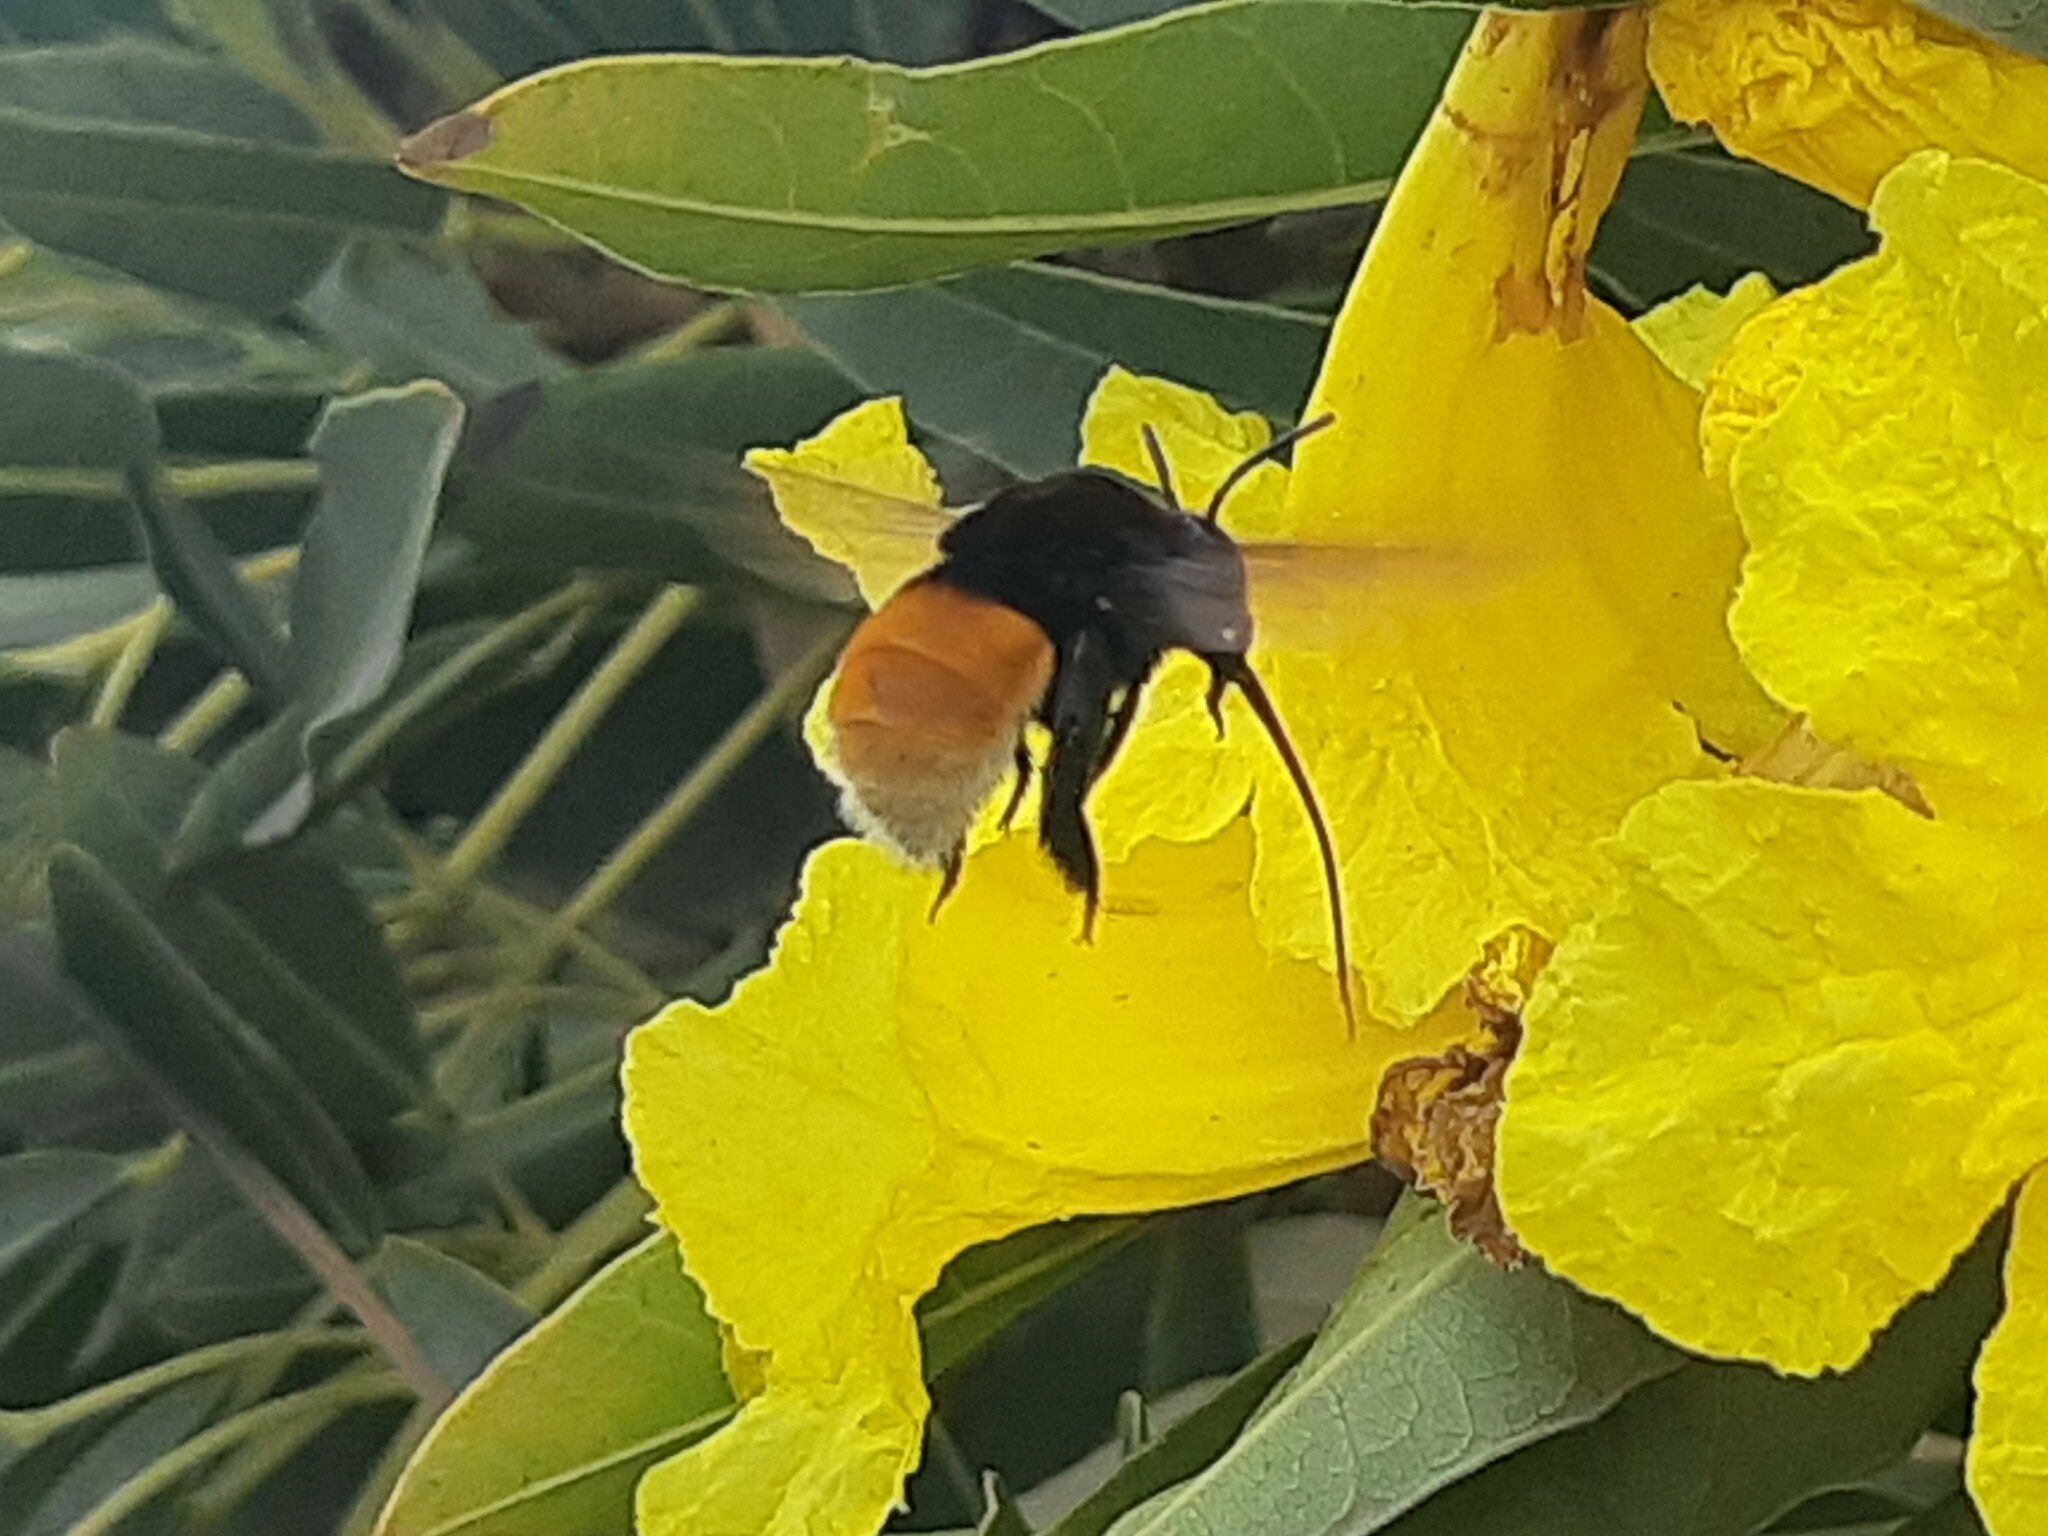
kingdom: Animalia
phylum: Arthropoda
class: Insecta
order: Hymenoptera
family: Apidae
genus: Eulaema
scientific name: Eulaema polychroma
